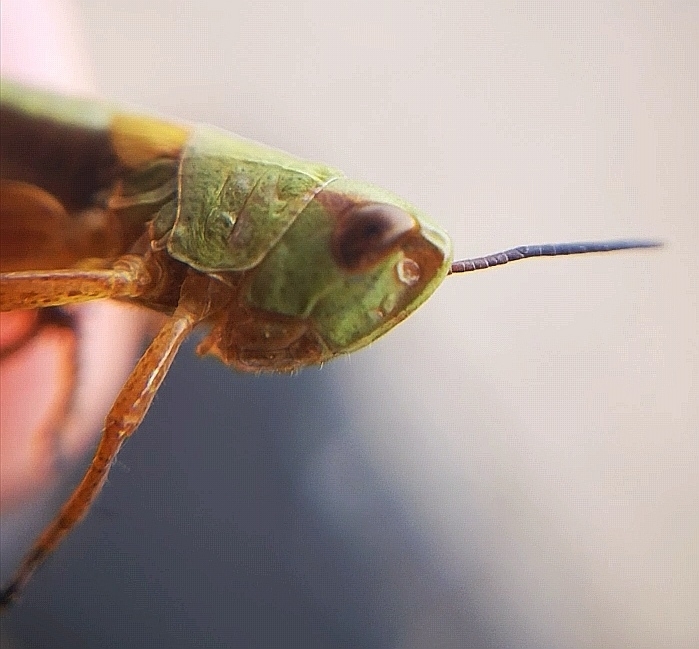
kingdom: Animalia
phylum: Arthropoda
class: Insecta
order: Orthoptera
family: Acrididae
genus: Pseudochorthippus
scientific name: Pseudochorthippus parallelus
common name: Meadow grasshopper
